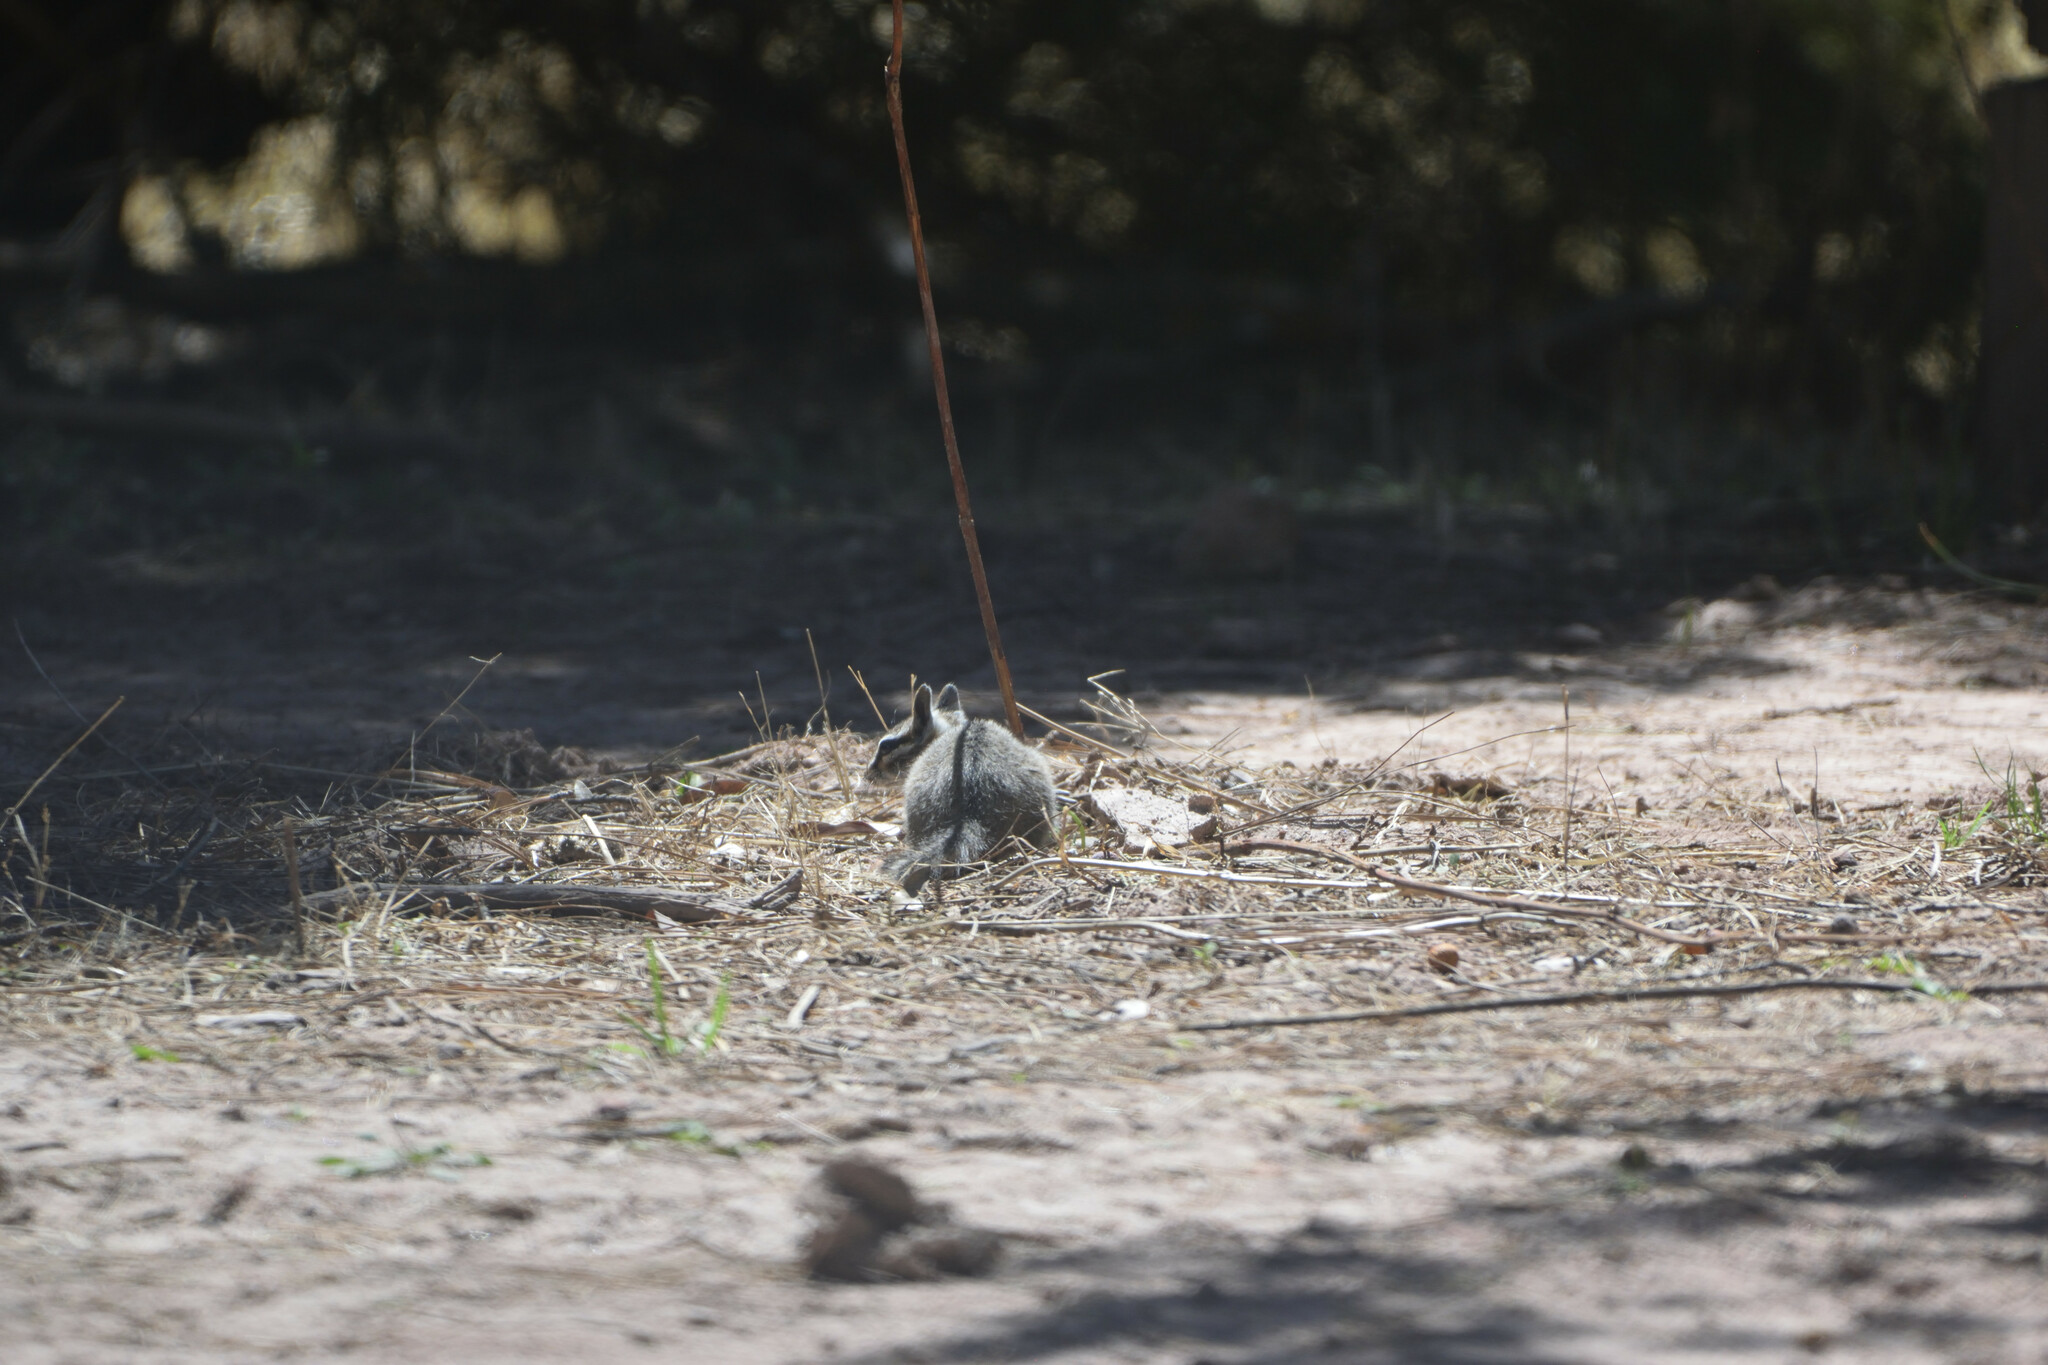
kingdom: Animalia
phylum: Chordata
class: Mammalia
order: Rodentia
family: Sciuridae
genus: Tamias
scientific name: Tamias dorsalis
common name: Cliff chipmunk
